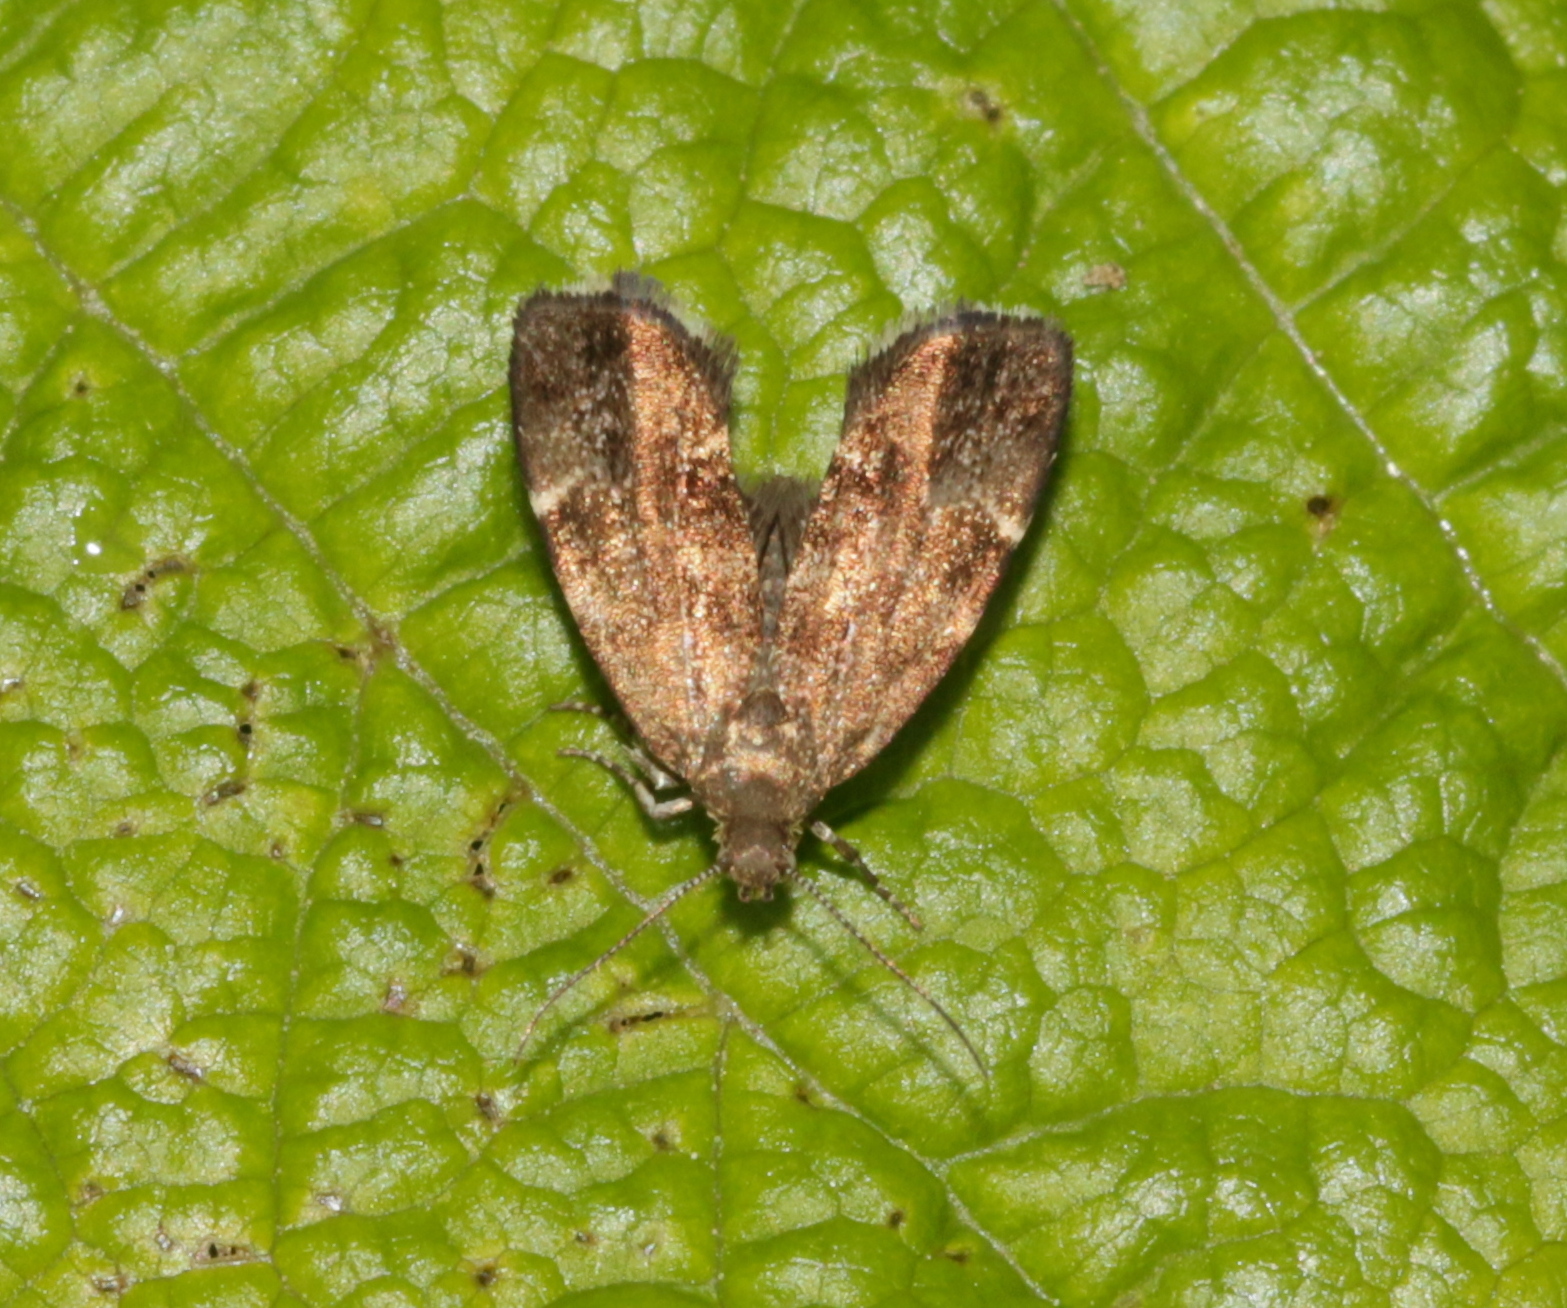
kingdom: Animalia
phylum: Arthropoda
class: Insecta
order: Lepidoptera
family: Choreutidae
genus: Anthophila
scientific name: Anthophila fabriciana
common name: Nettle-tap
